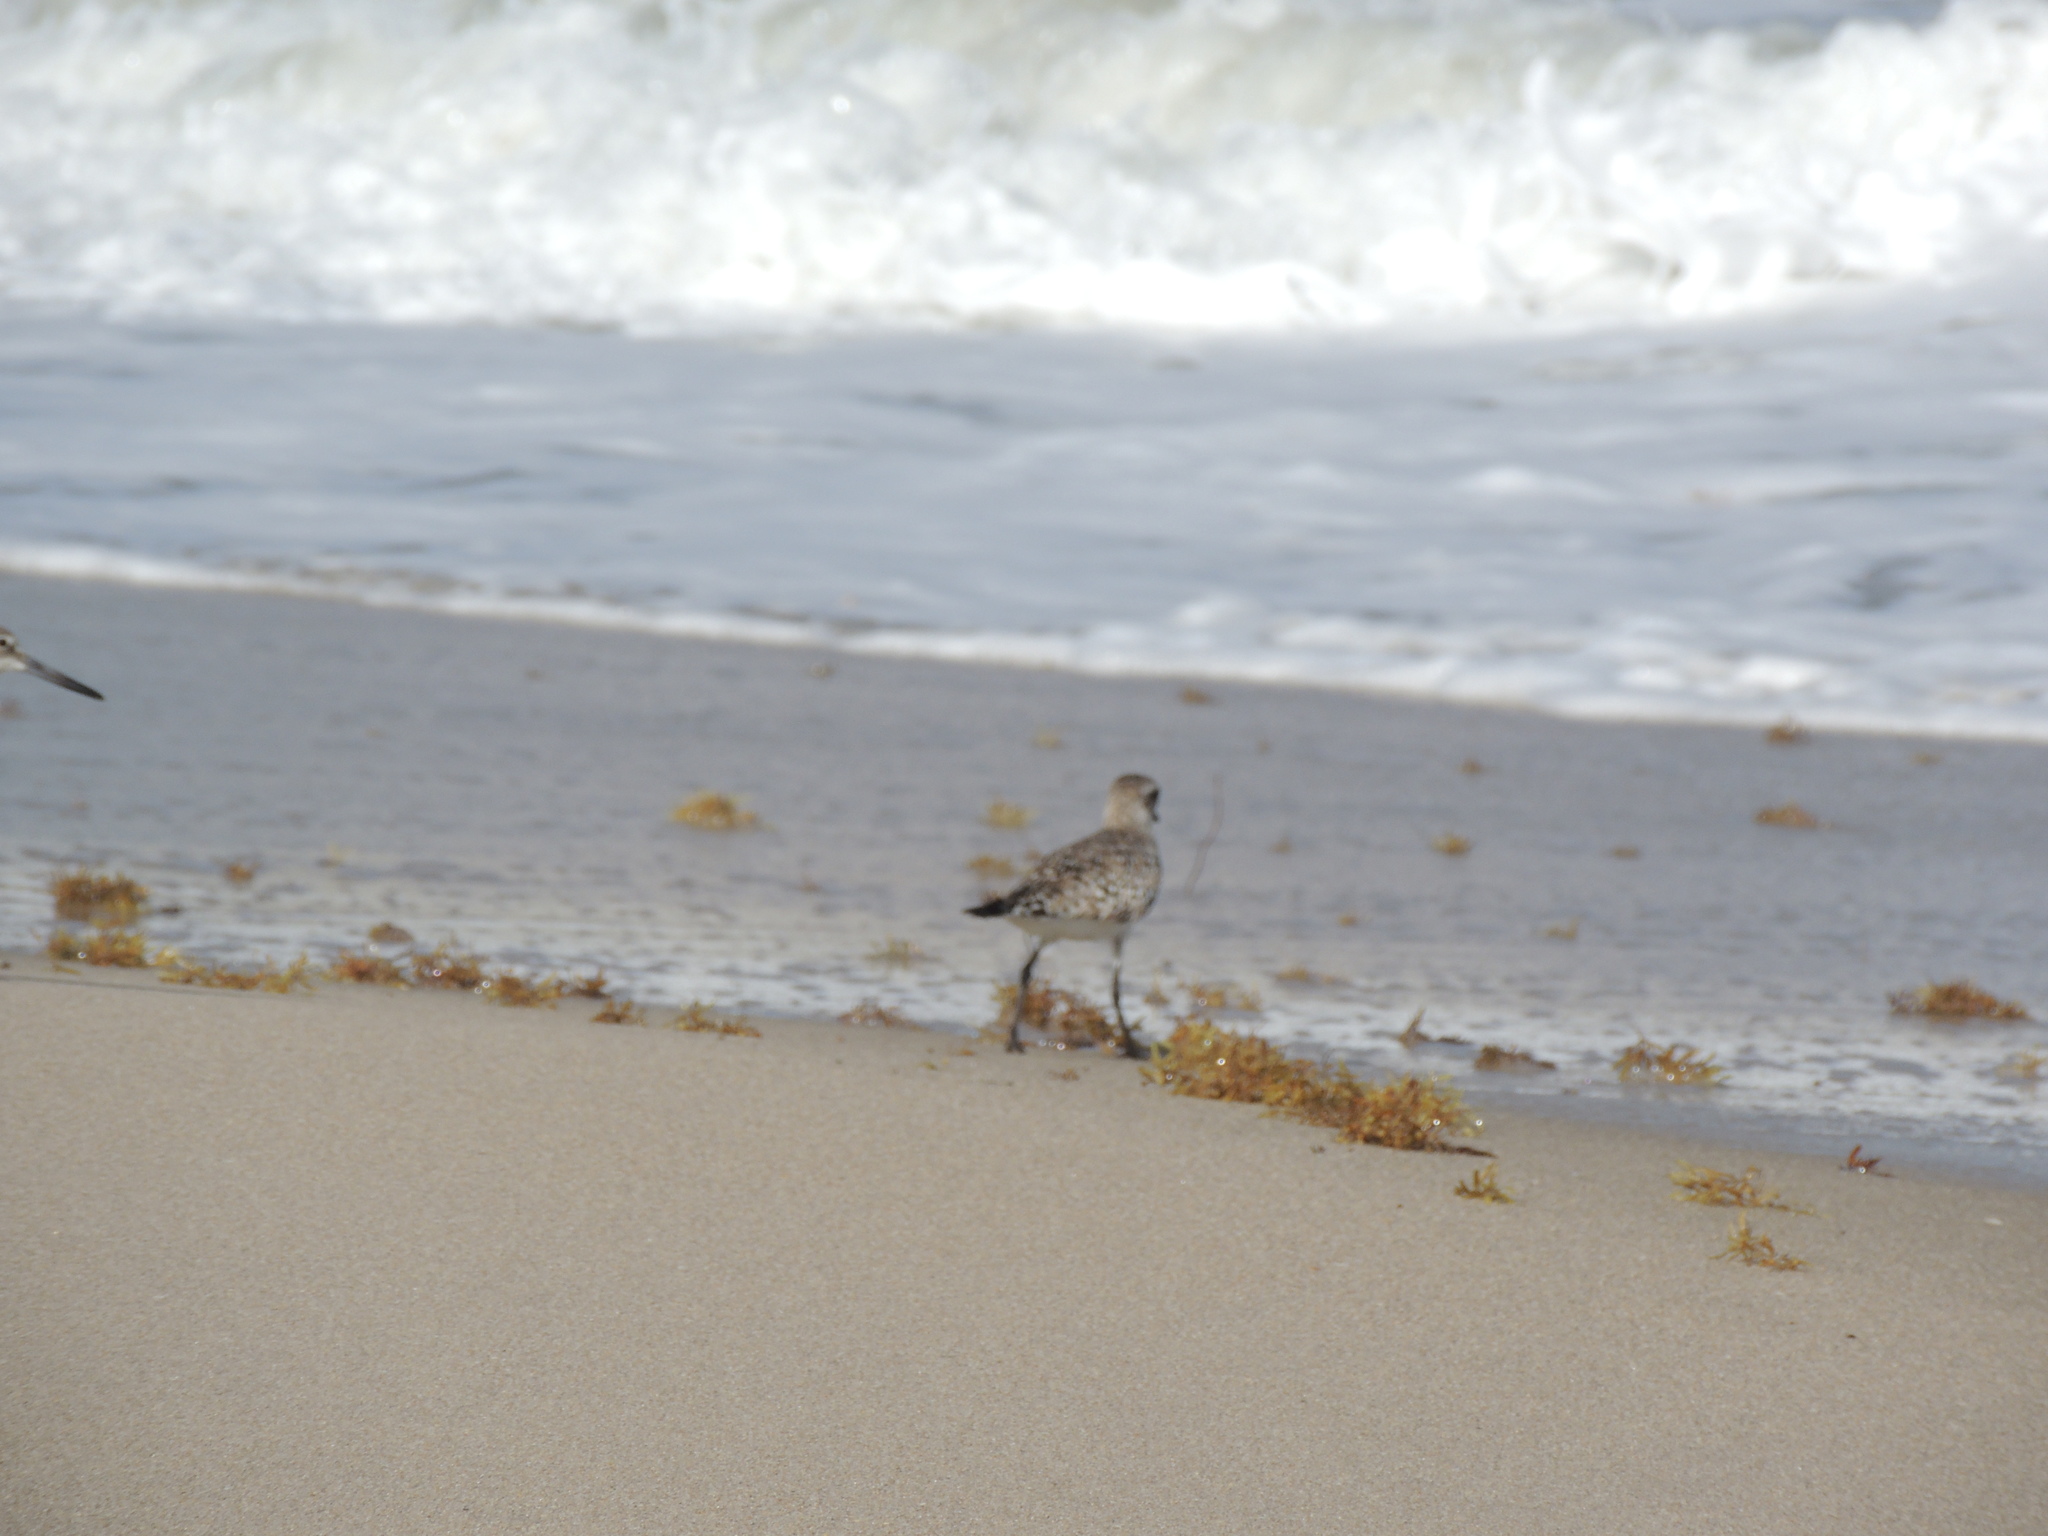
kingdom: Animalia
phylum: Chordata
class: Aves
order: Charadriiformes
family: Charadriidae
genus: Pluvialis
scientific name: Pluvialis squatarola
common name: Grey plover
